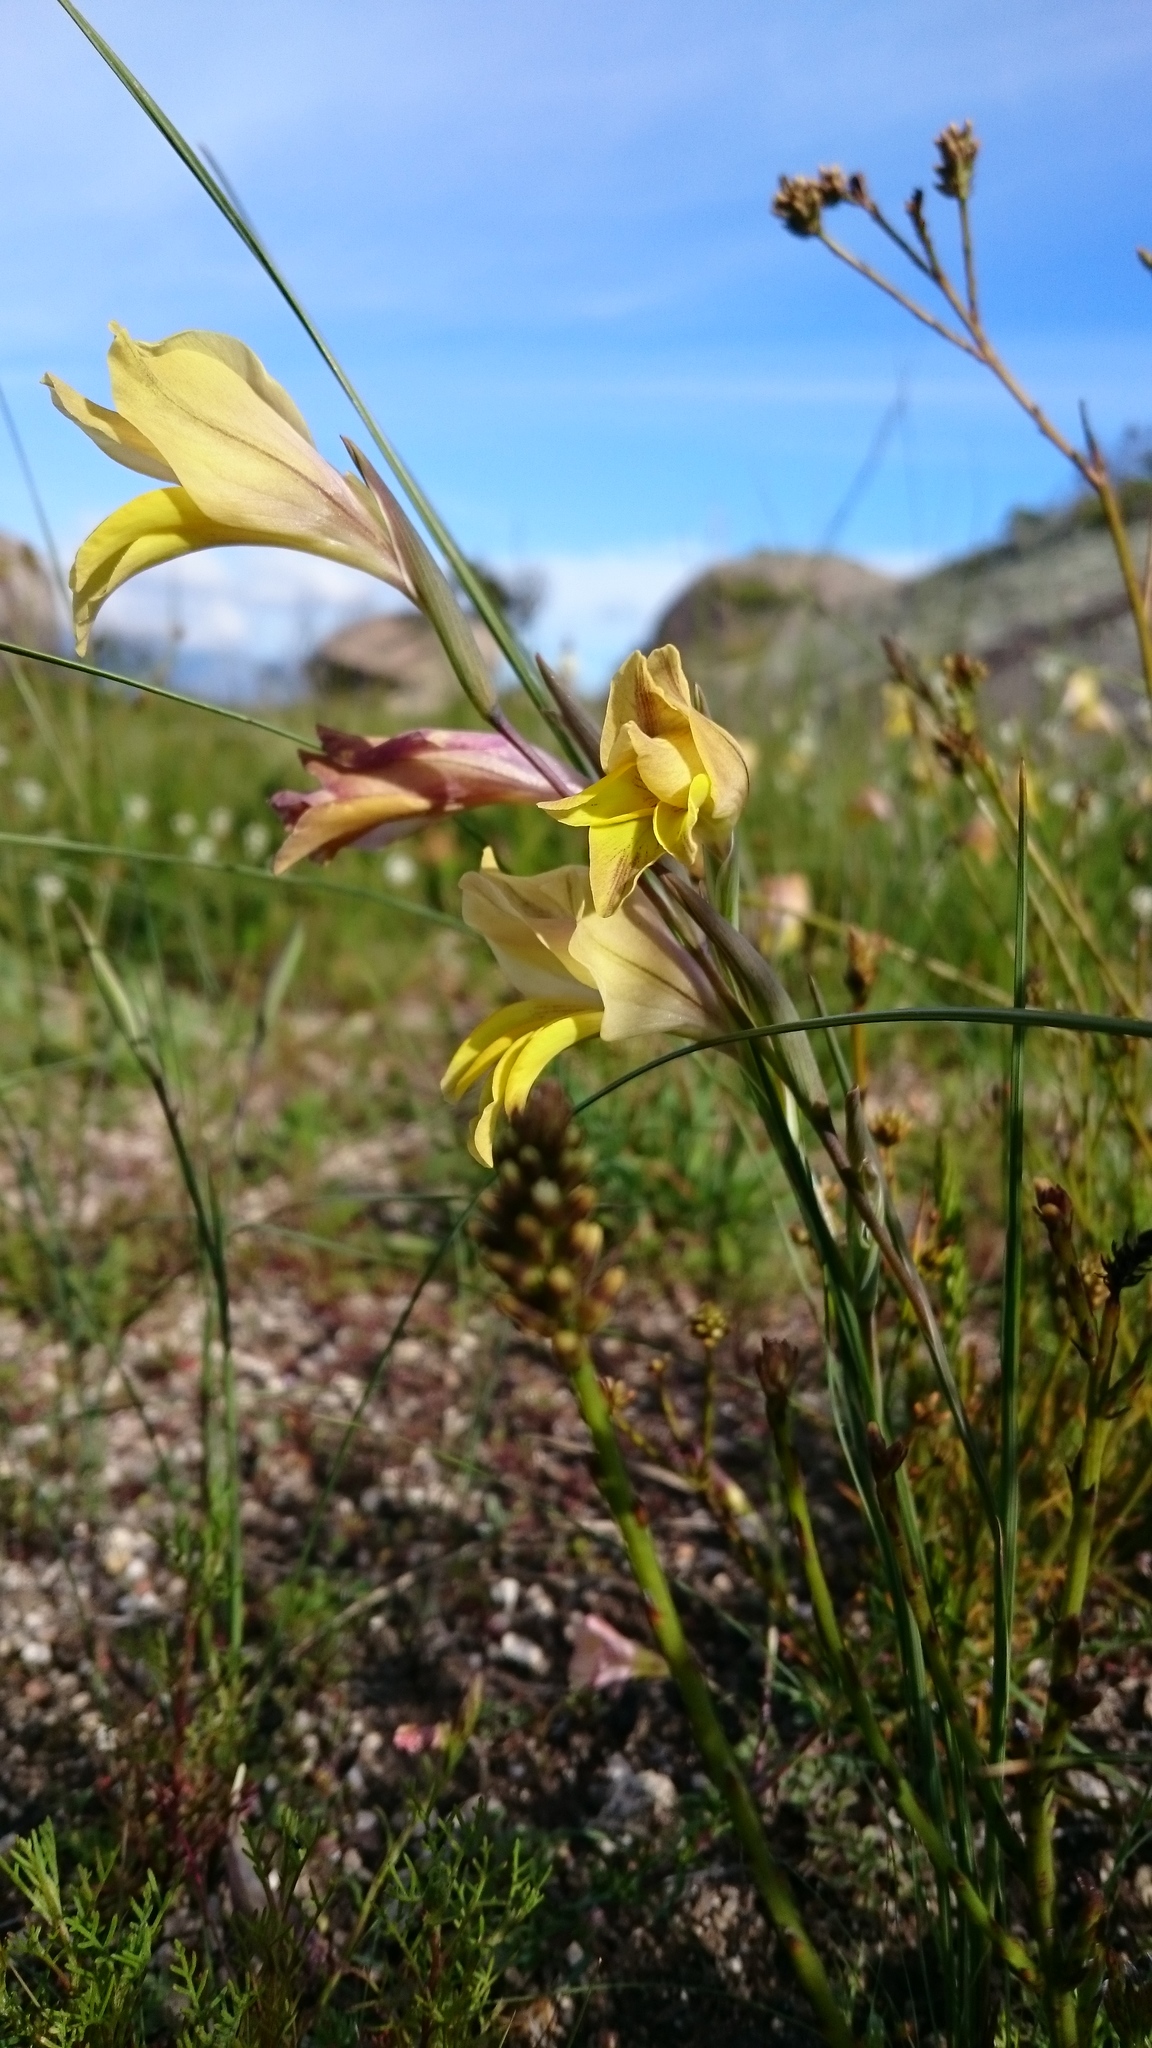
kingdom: Plantae
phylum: Tracheophyta
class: Liliopsida
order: Asparagales
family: Iridaceae
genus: Gladiolus
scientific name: Gladiolus carinatus
